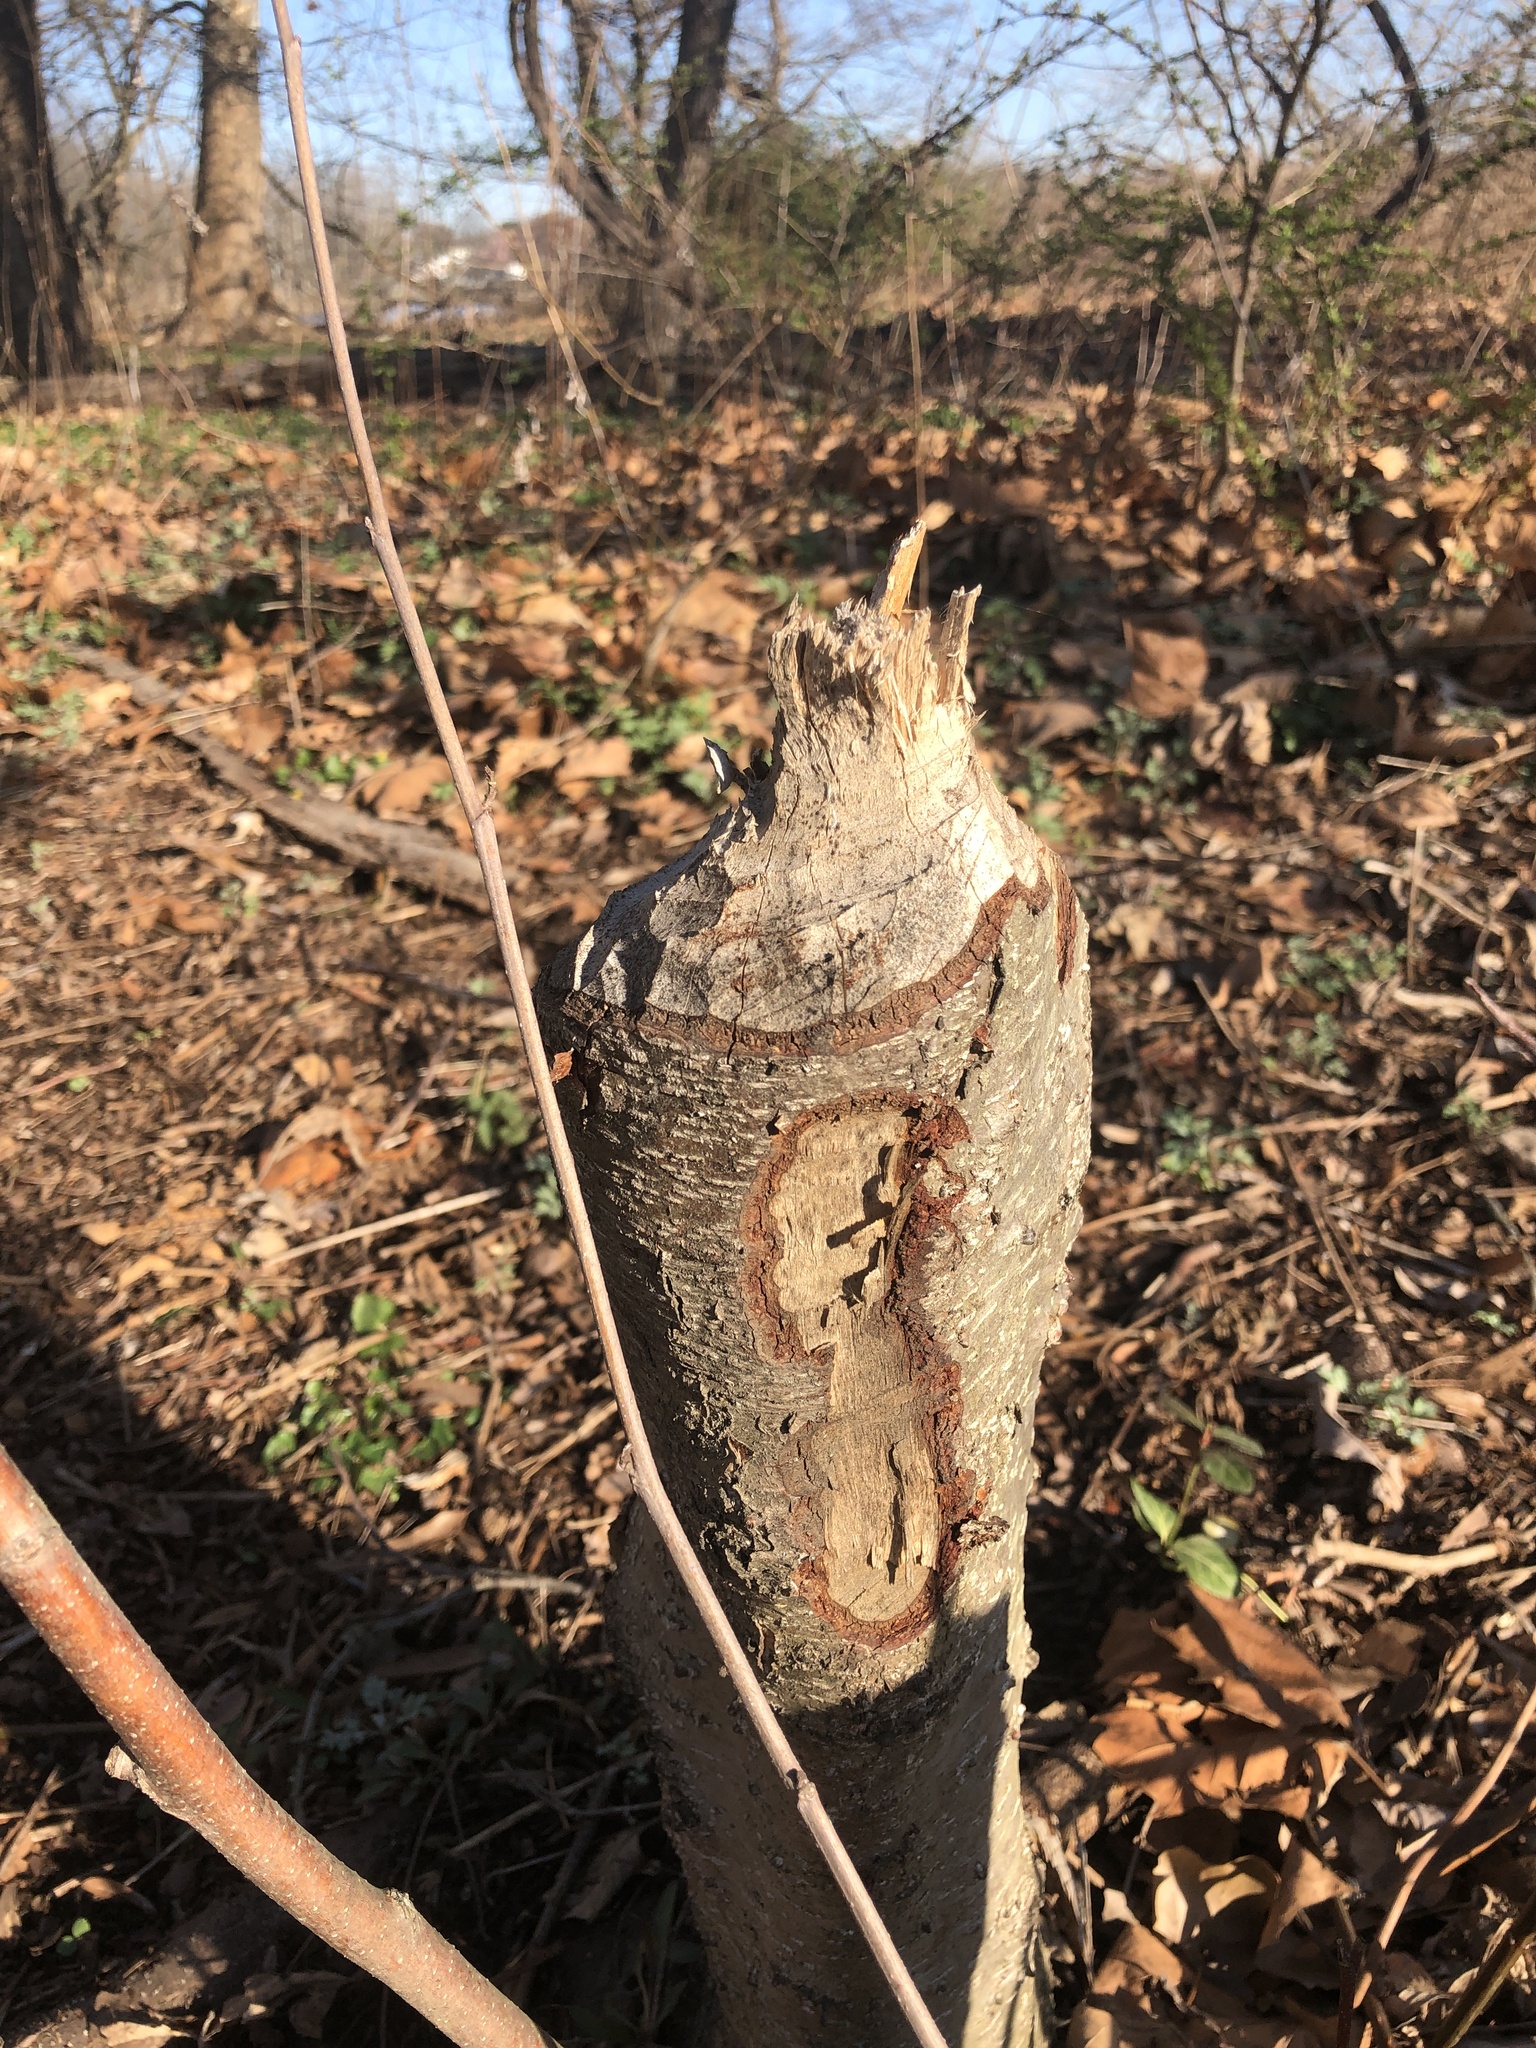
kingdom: Animalia
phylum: Chordata
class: Mammalia
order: Rodentia
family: Castoridae
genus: Castor
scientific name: Castor canadensis
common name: American beaver
